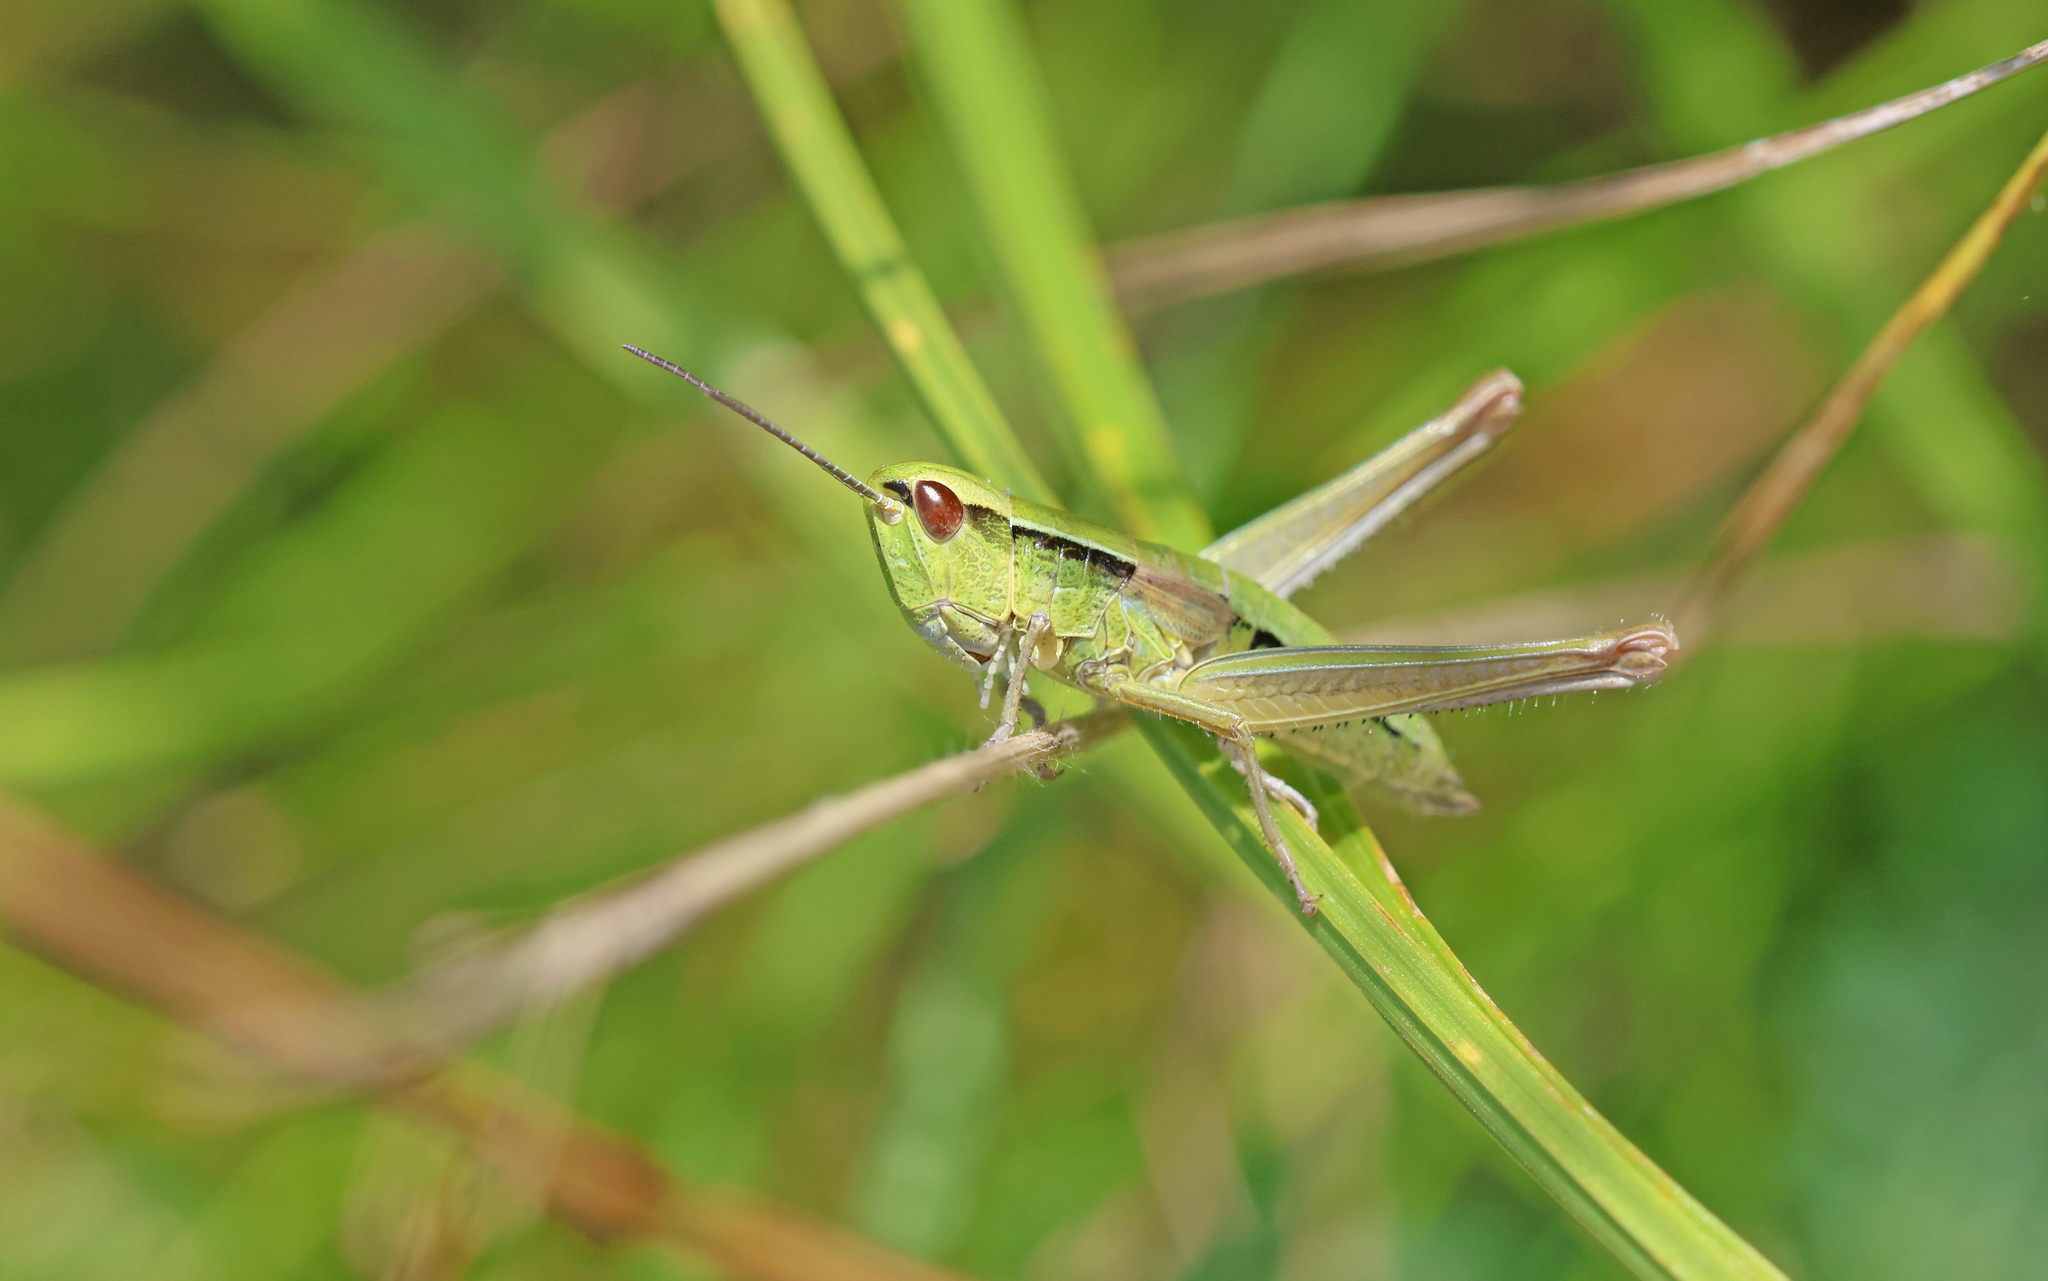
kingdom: Animalia
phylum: Arthropoda
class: Insecta
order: Orthoptera
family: Acrididae
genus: Euthystira
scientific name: Euthystira brachyptera
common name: Small gold grasshopper
